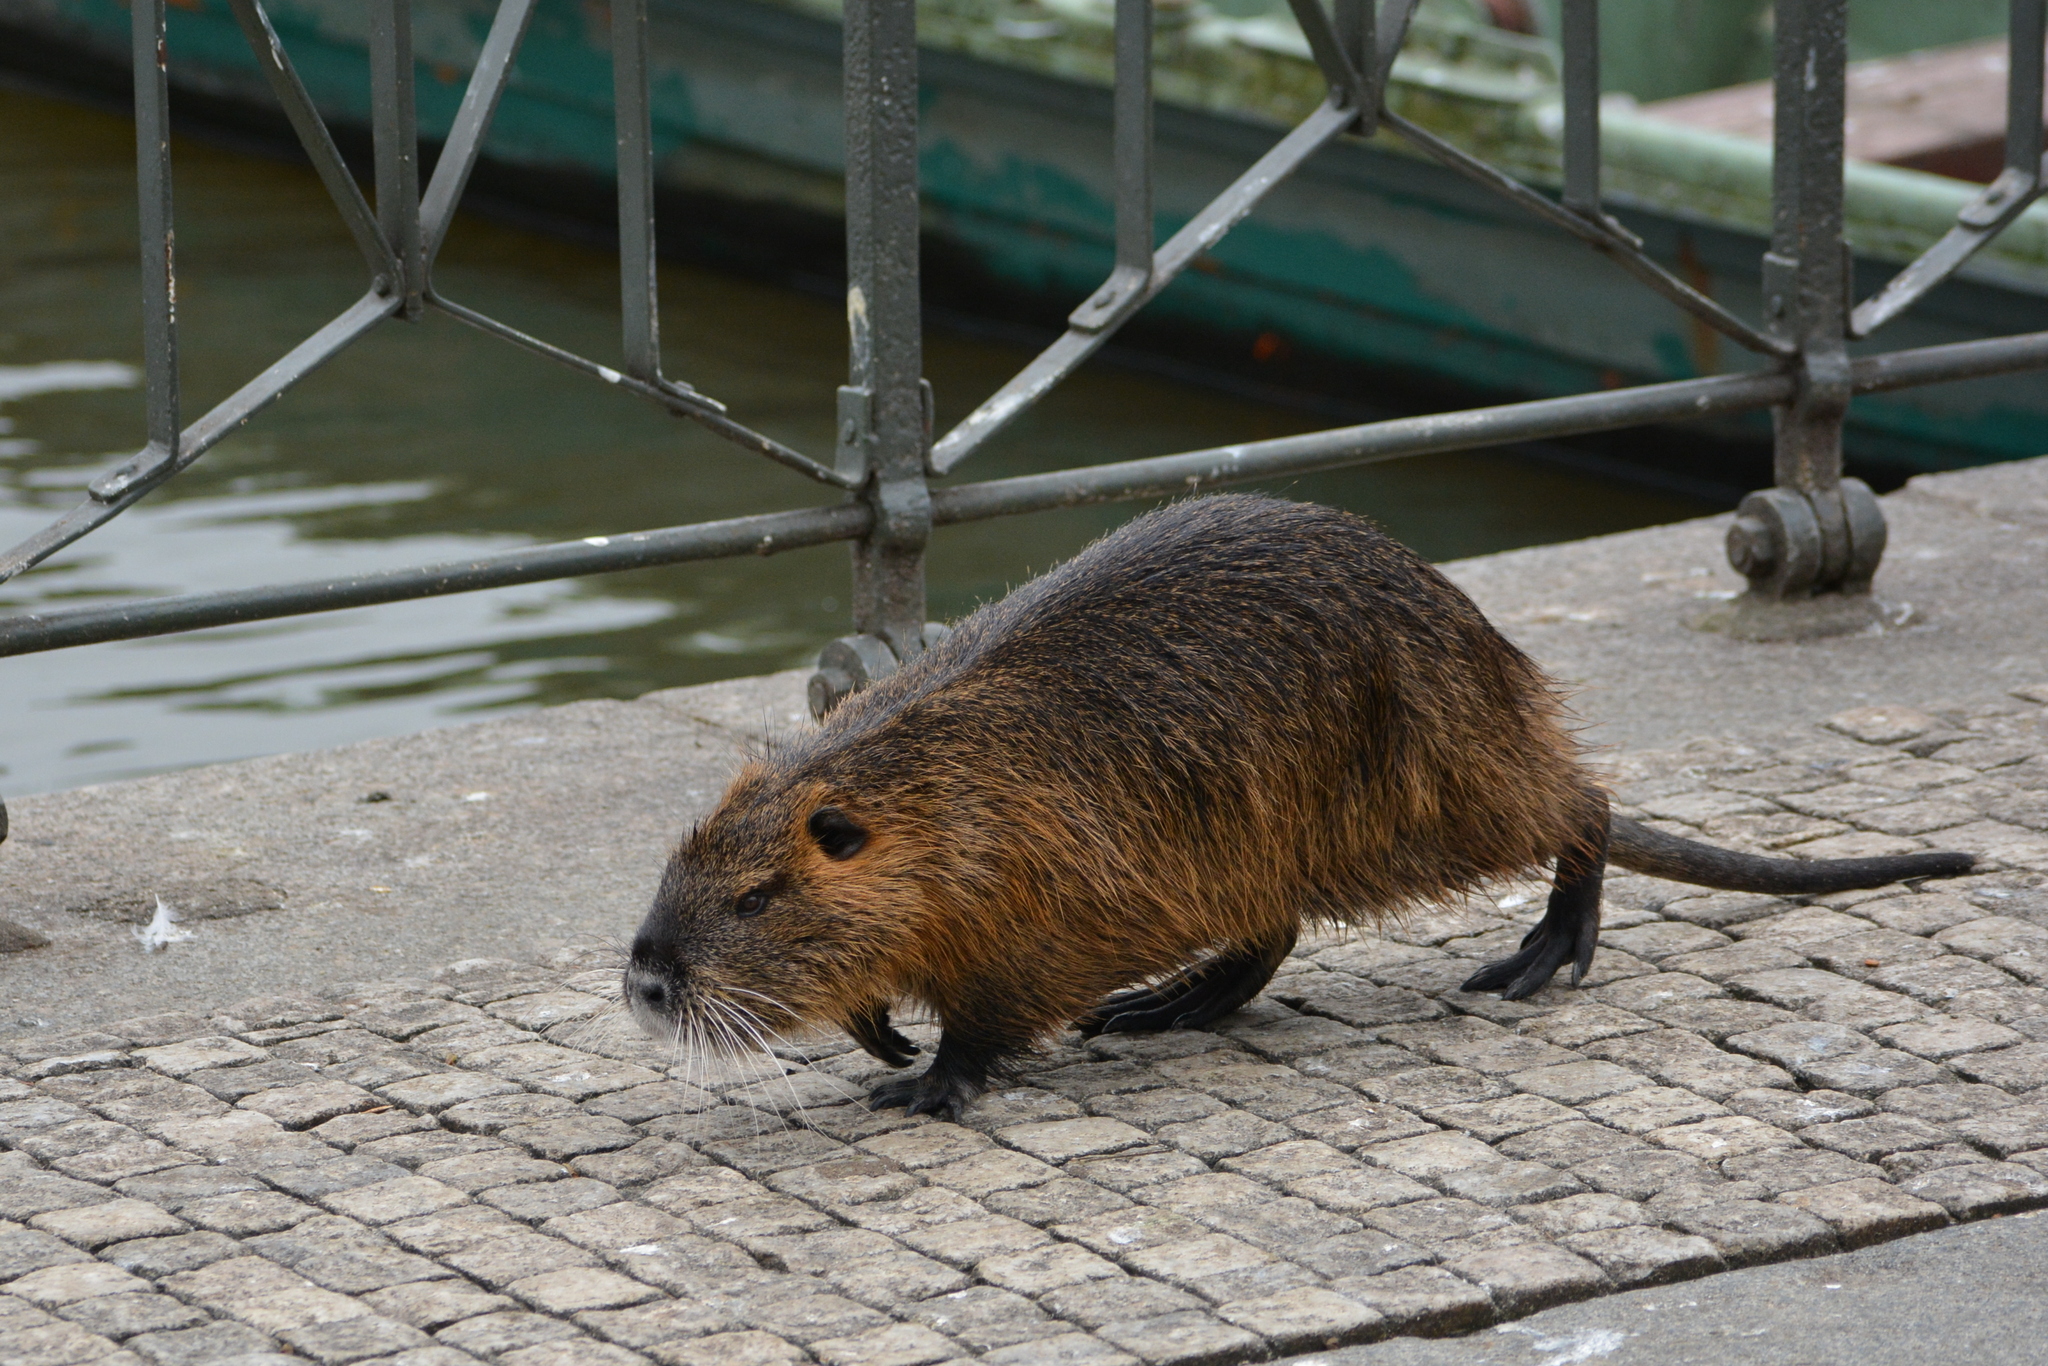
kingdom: Animalia
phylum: Chordata
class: Mammalia
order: Rodentia
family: Myocastoridae
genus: Myocastor
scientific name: Myocastor coypus
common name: Coypu
